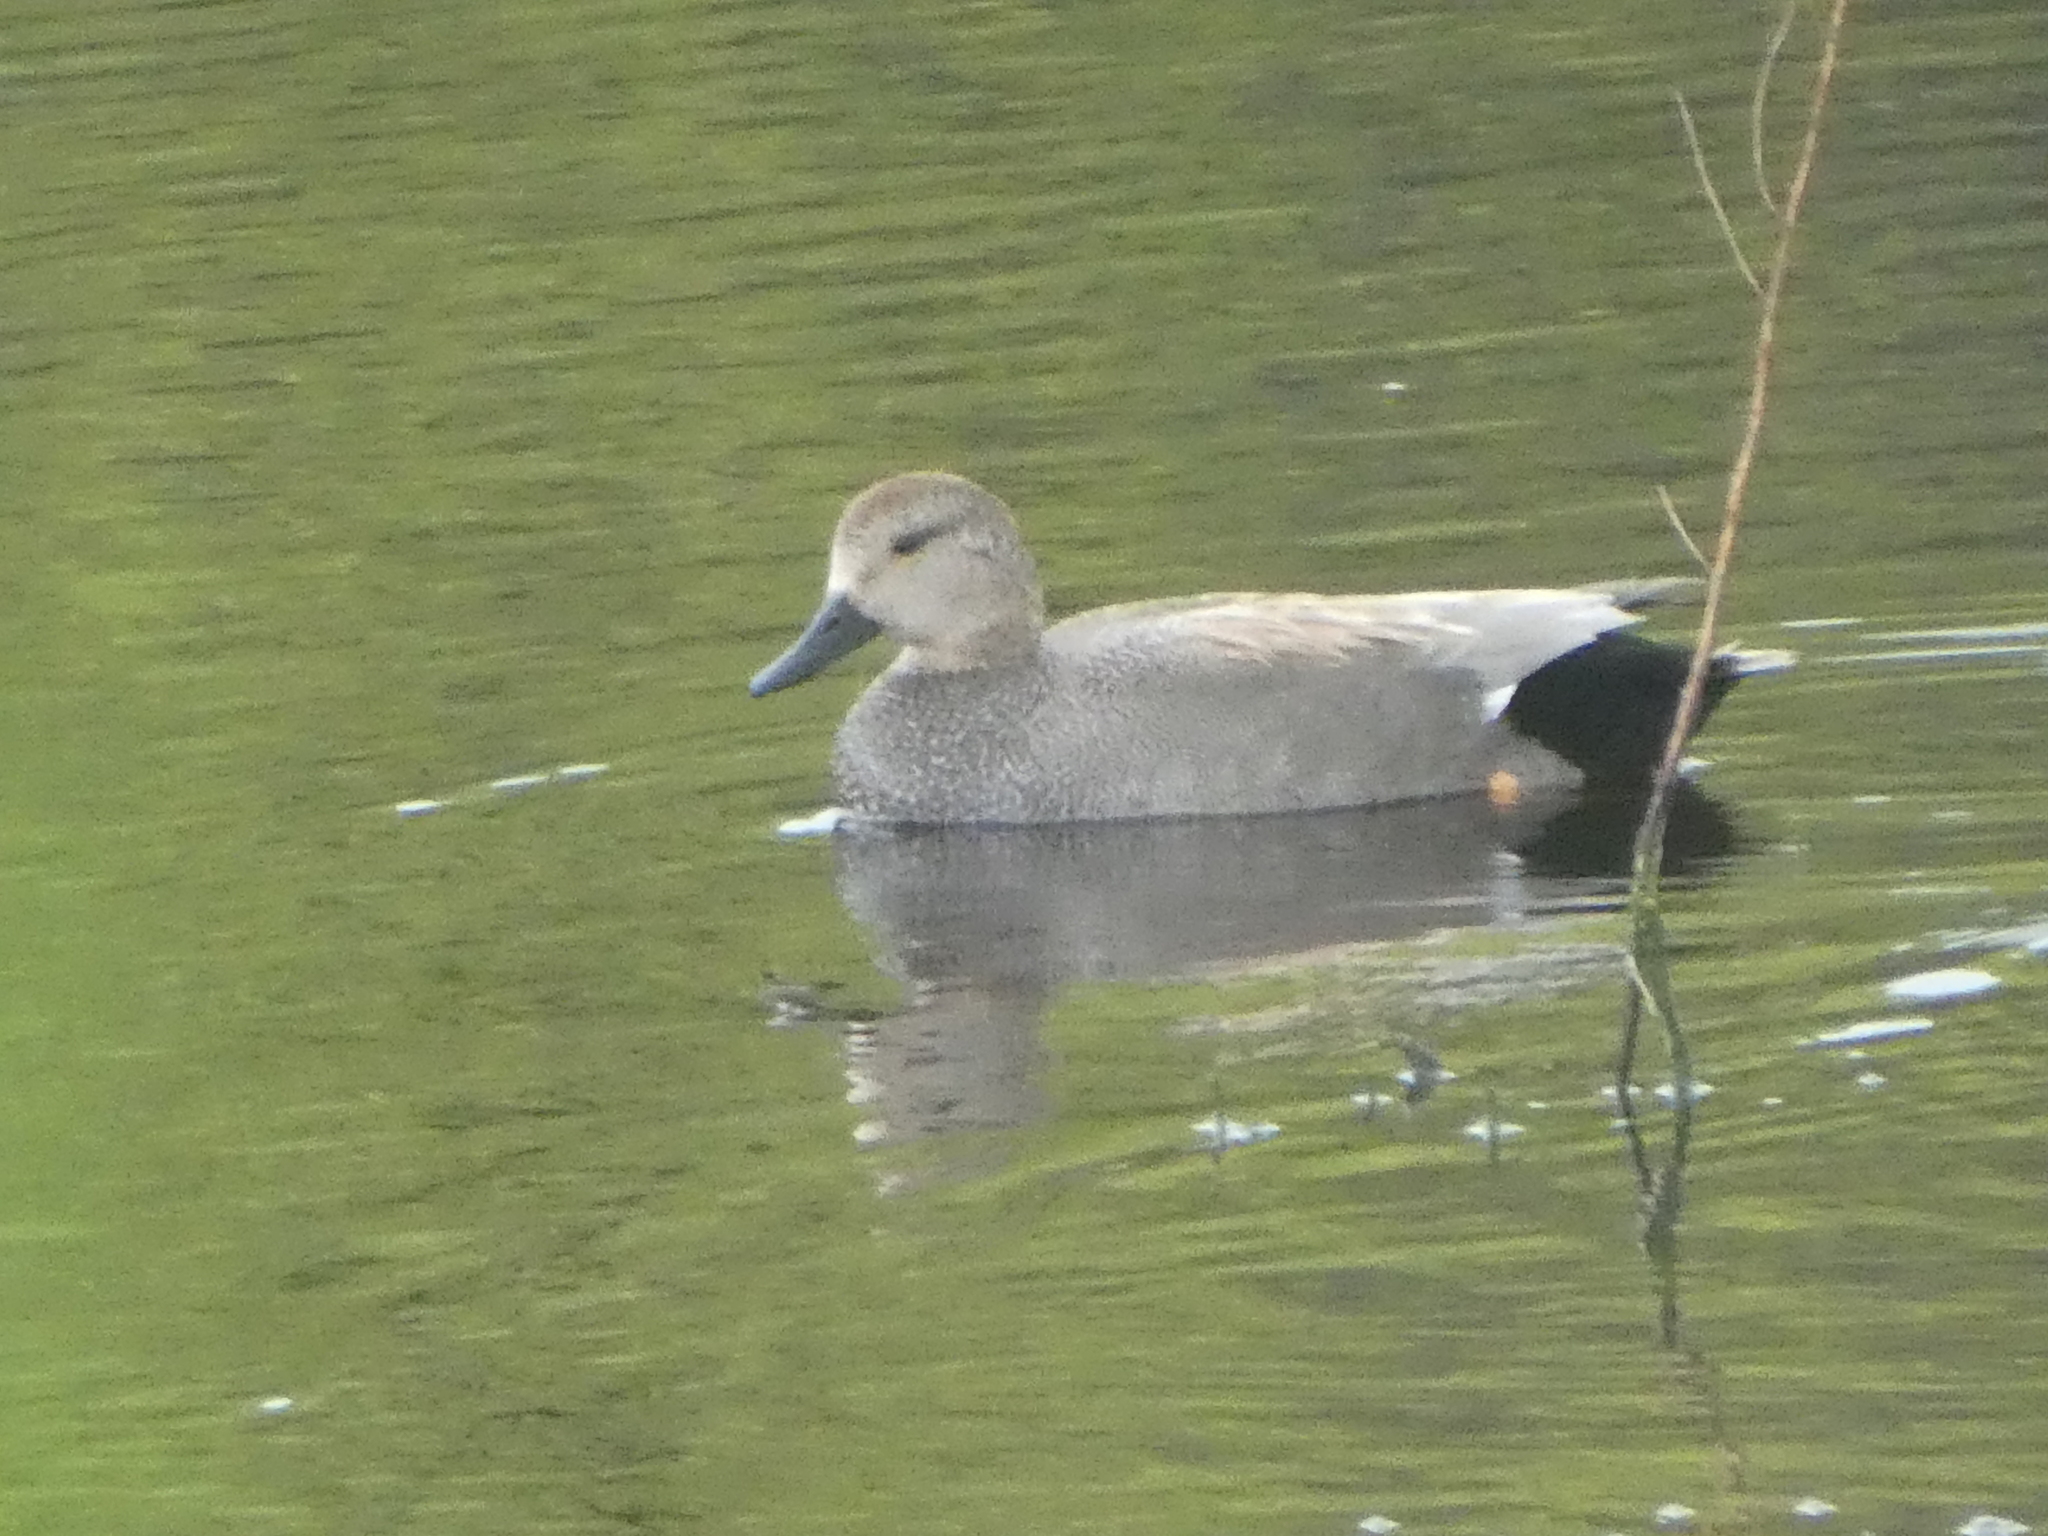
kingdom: Animalia
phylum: Chordata
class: Aves
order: Anseriformes
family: Anatidae
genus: Mareca
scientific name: Mareca strepera
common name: Gadwall
